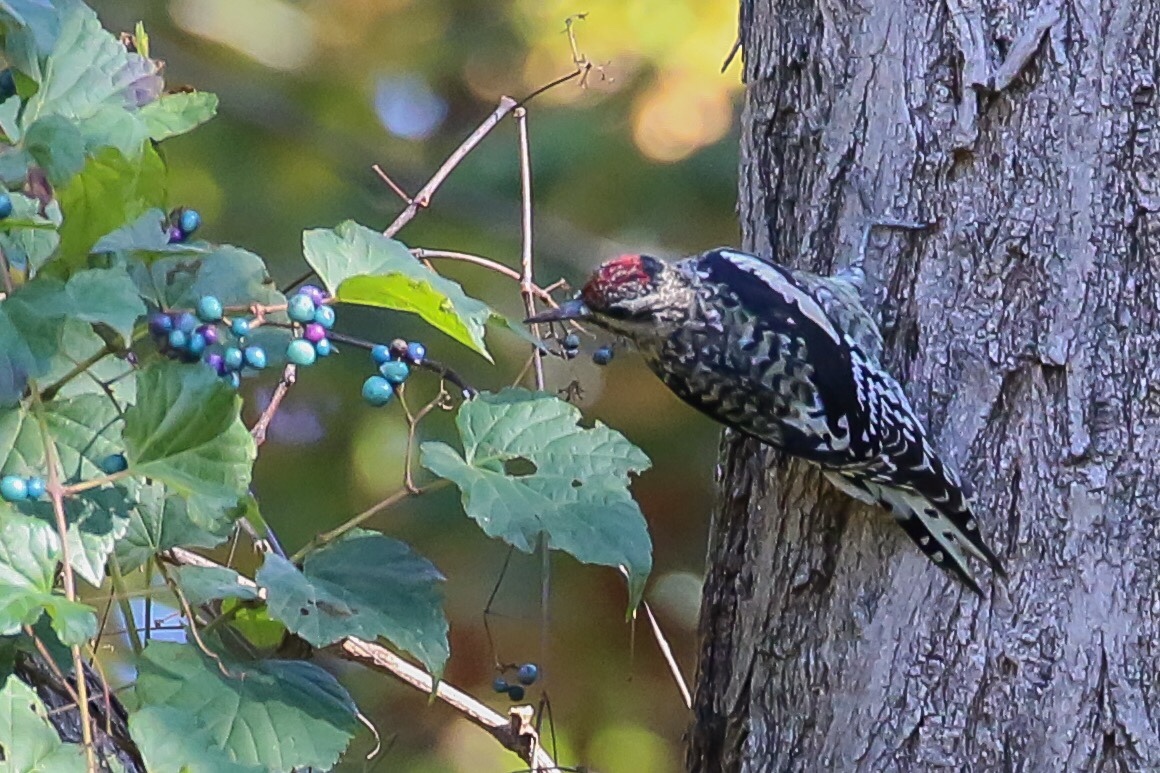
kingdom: Animalia
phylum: Chordata
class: Aves
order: Piciformes
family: Picidae
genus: Sphyrapicus
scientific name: Sphyrapicus varius
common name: Yellow-bellied sapsucker
